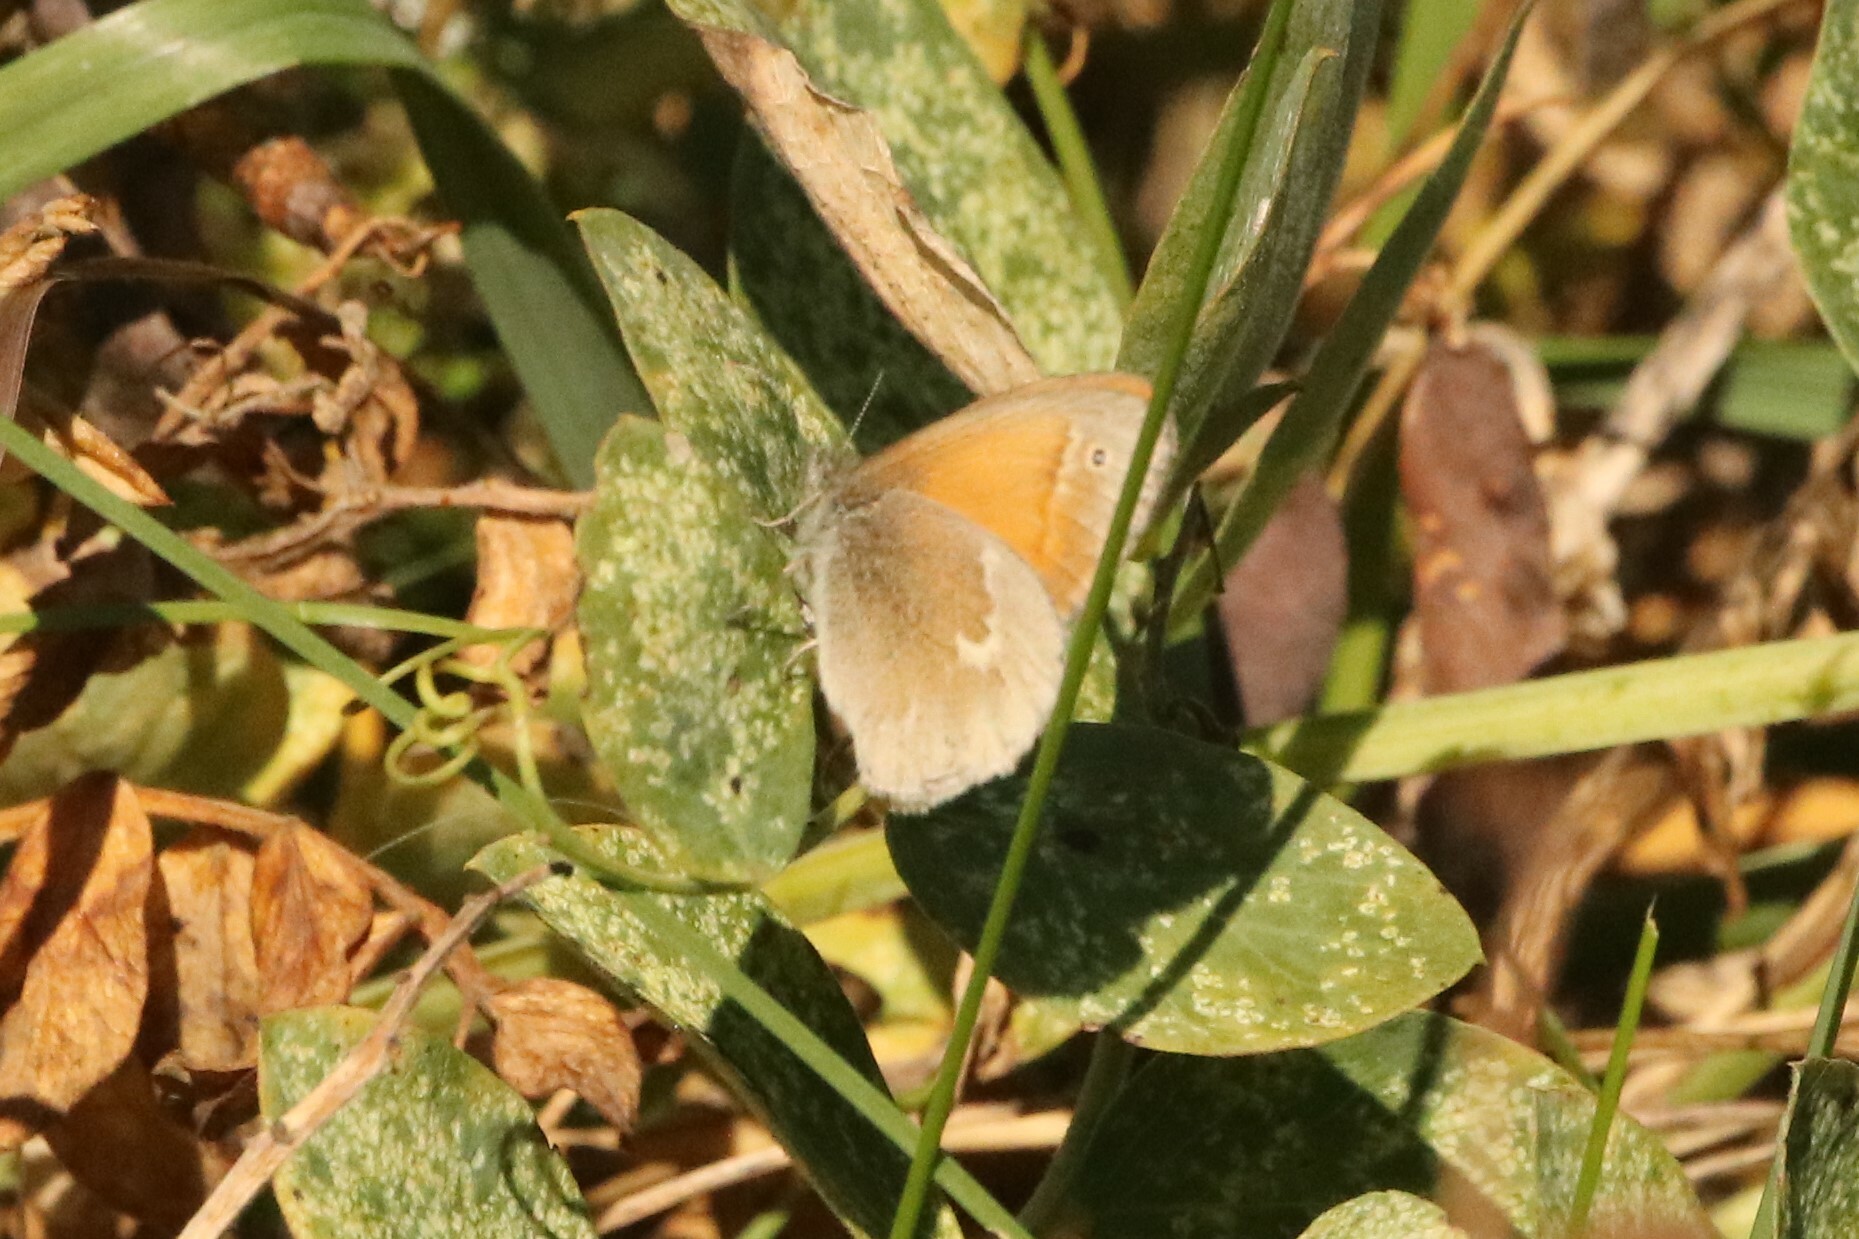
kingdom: Animalia
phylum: Arthropoda
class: Insecta
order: Lepidoptera
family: Nymphalidae
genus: Coenonympha
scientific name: Coenonympha california
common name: Common ringlet
